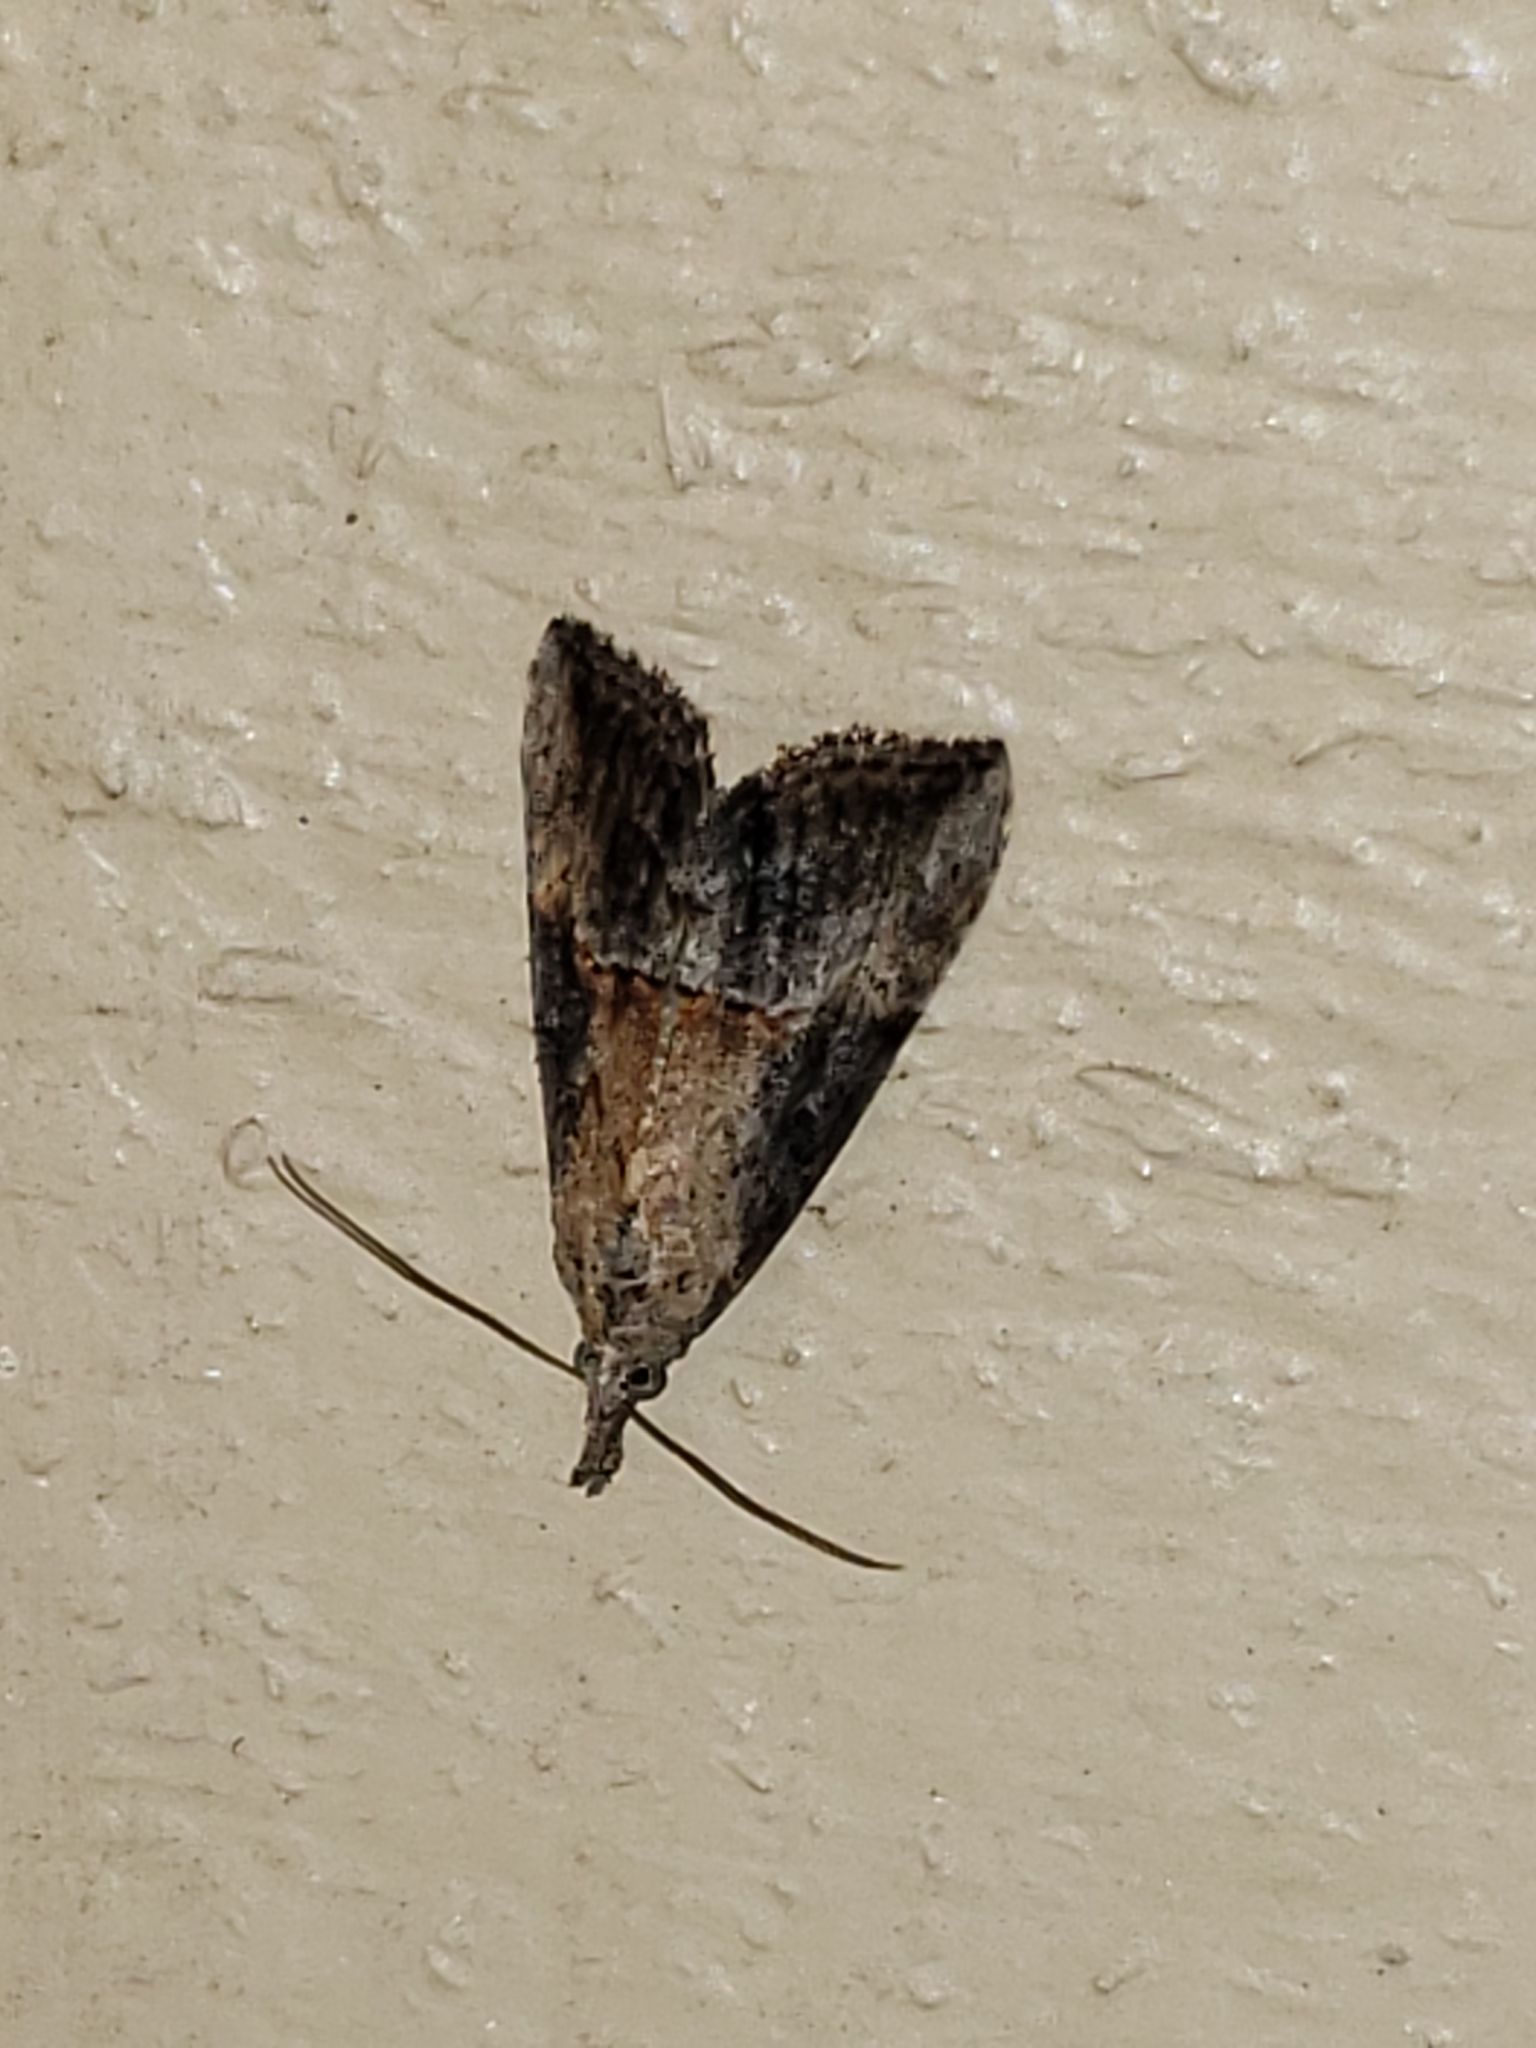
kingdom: Animalia
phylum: Arthropoda
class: Insecta
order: Lepidoptera
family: Erebidae
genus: Hypena
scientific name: Hypena scabra
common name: Green cloverworm
